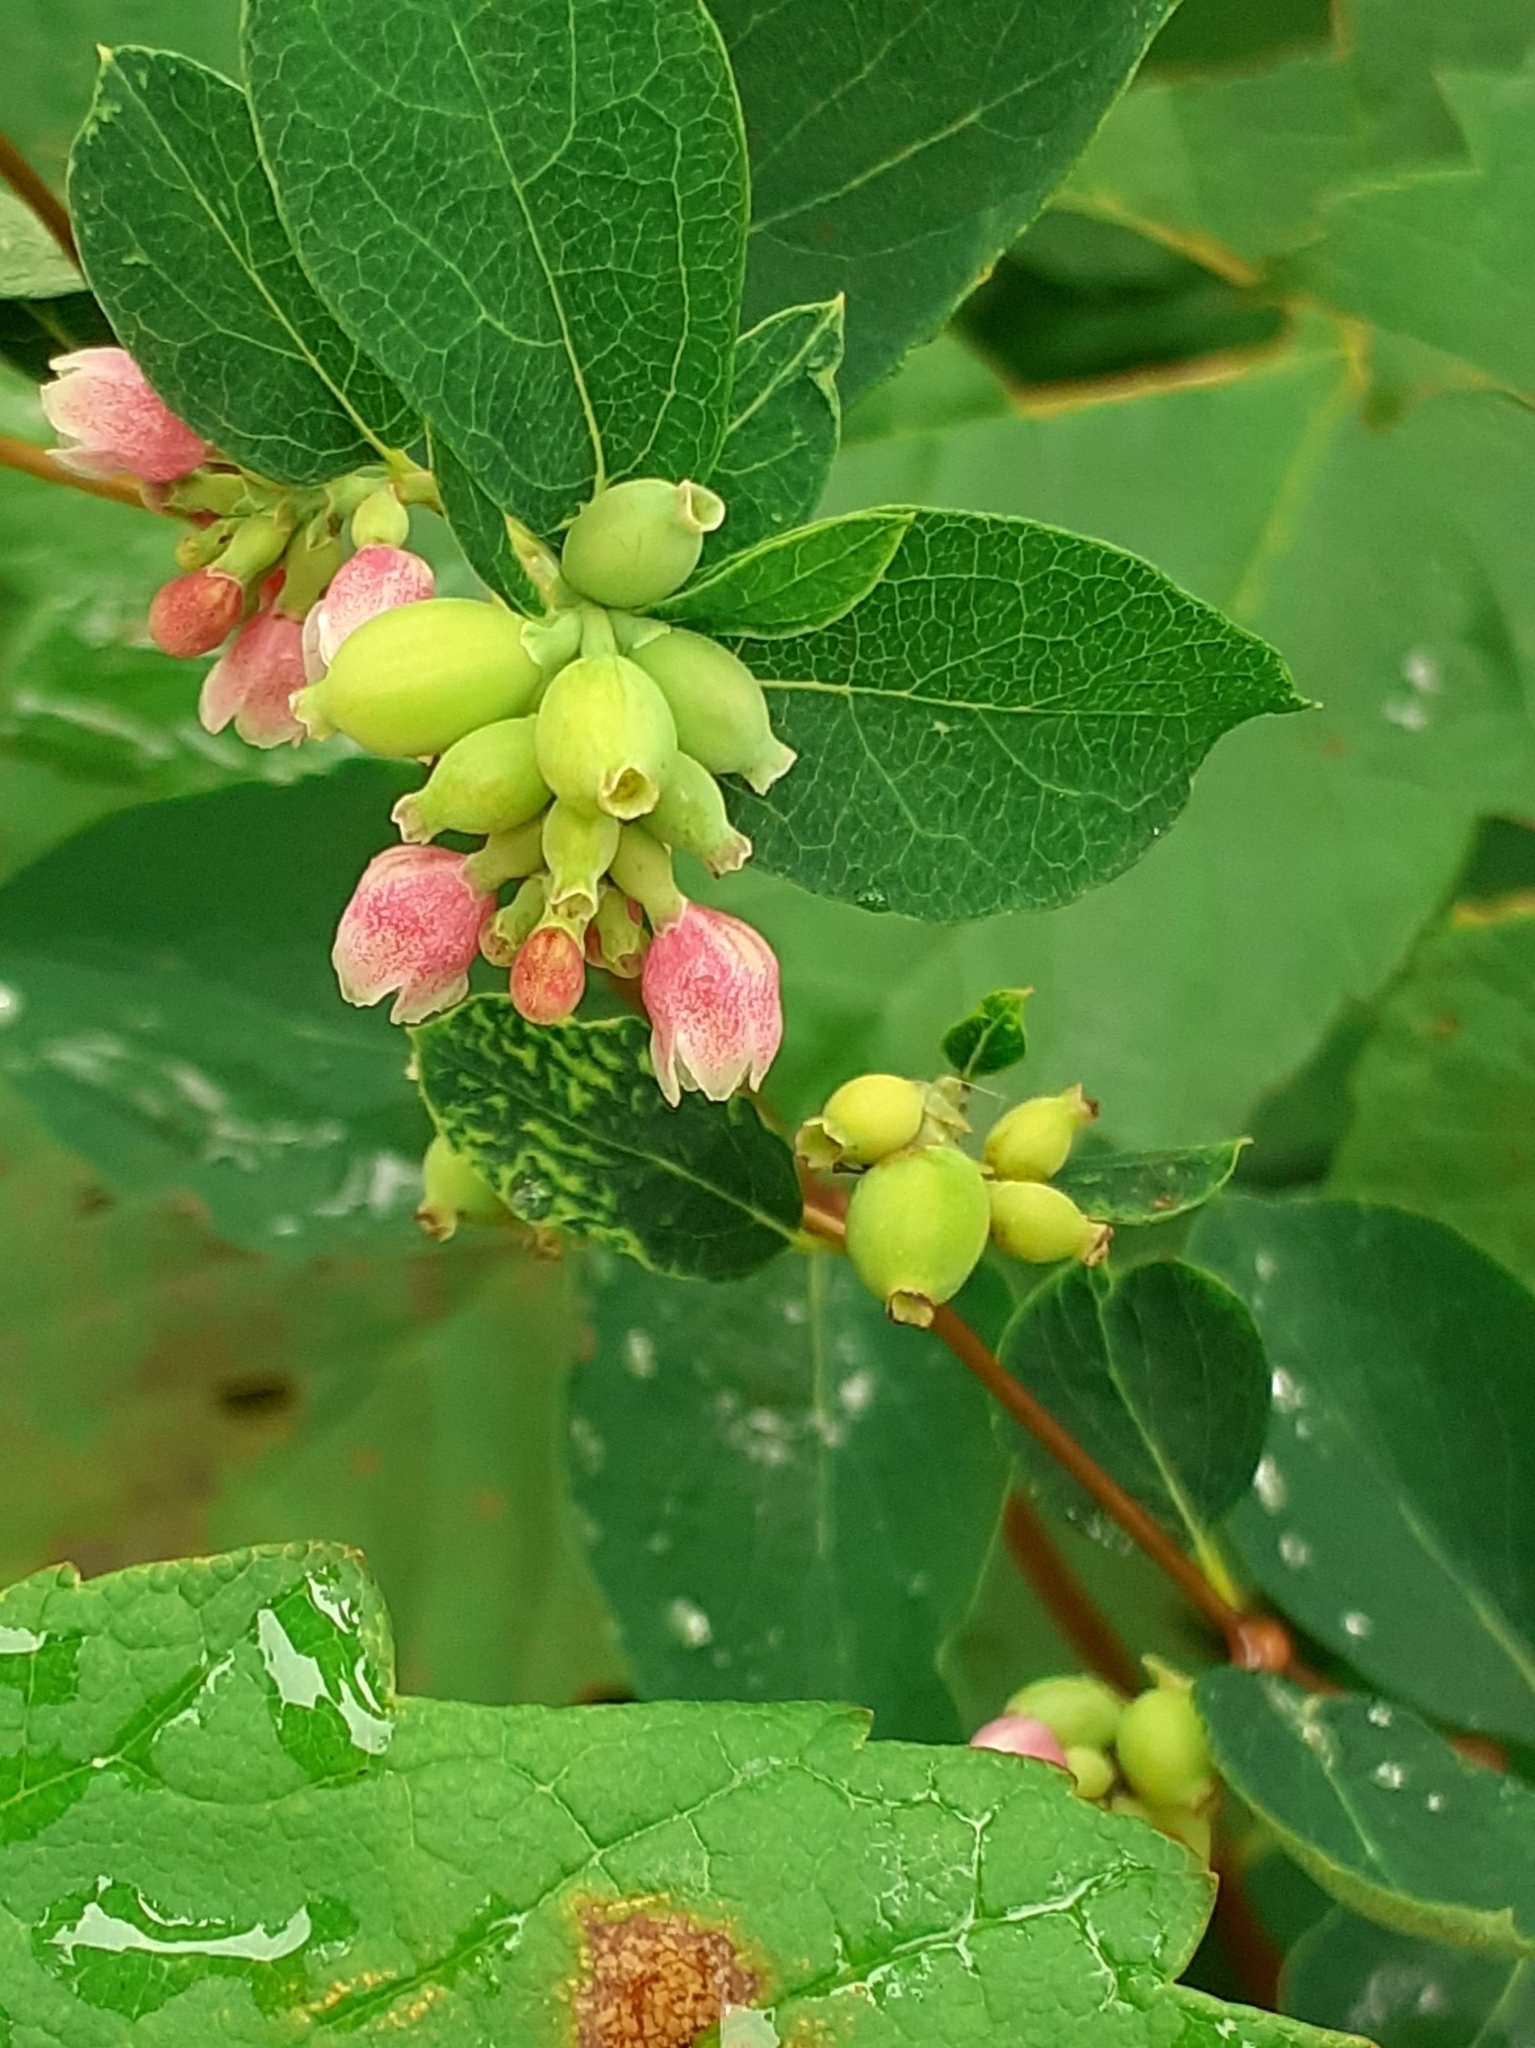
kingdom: Plantae
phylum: Tracheophyta
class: Magnoliopsida
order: Dipsacales
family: Caprifoliaceae
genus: Symphoricarpos
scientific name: Symphoricarpos albus
